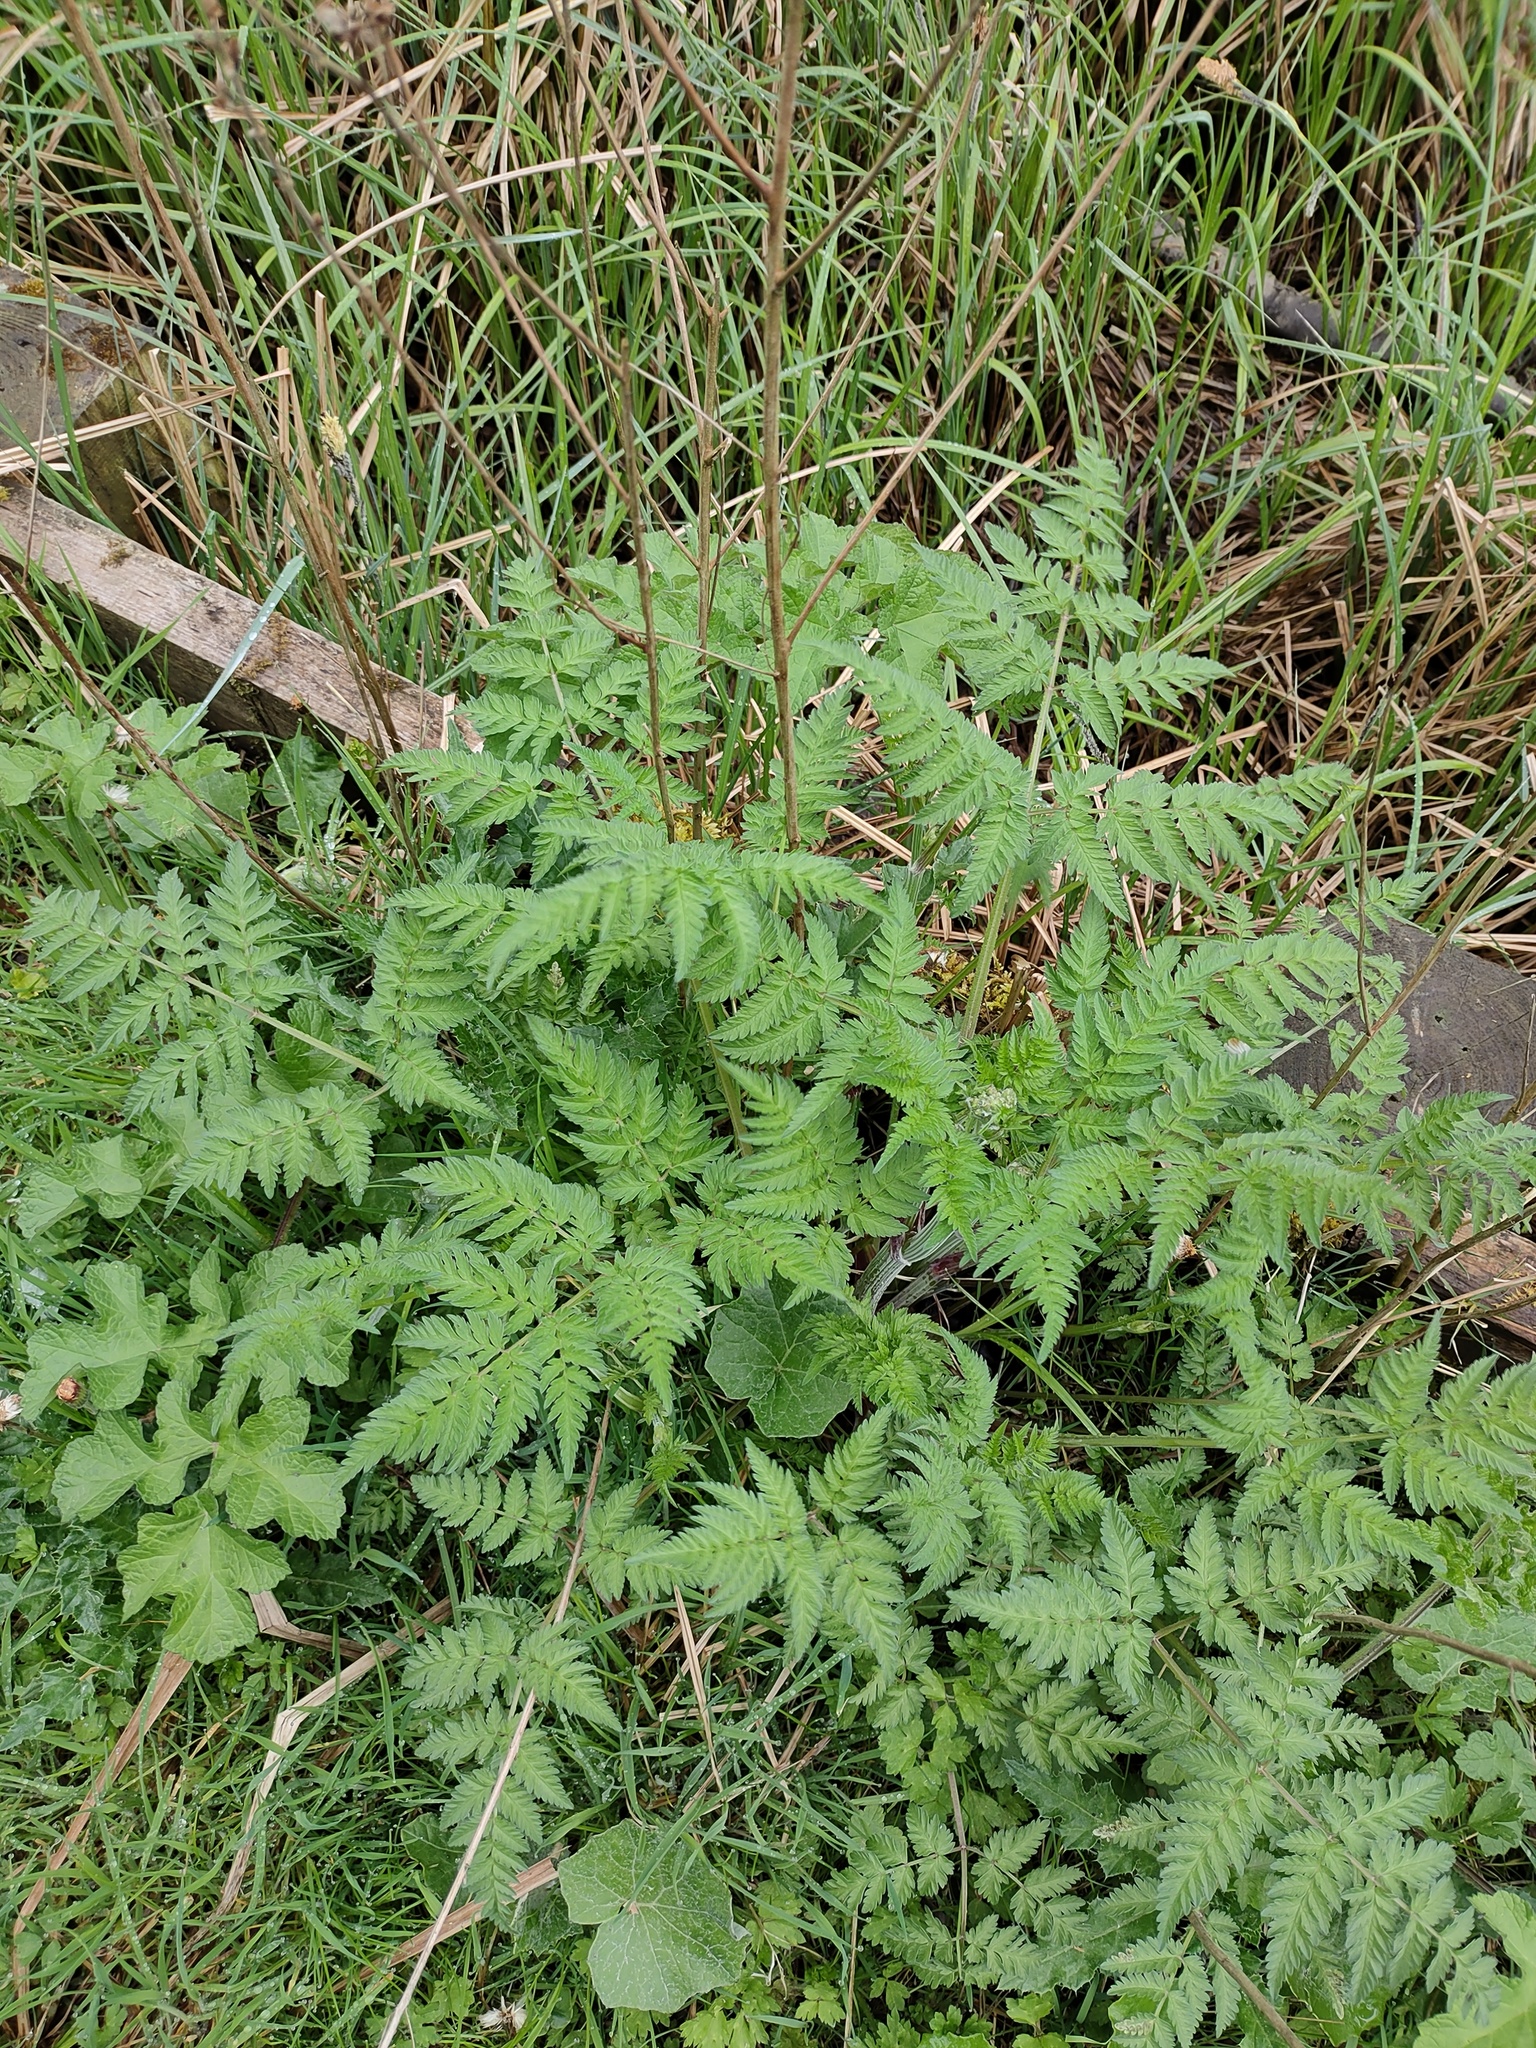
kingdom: Plantae
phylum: Tracheophyta
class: Magnoliopsida
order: Apiales
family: Apiaceae
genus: Anthriscus
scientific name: Anthriscus sylvestris
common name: Cow parsley
